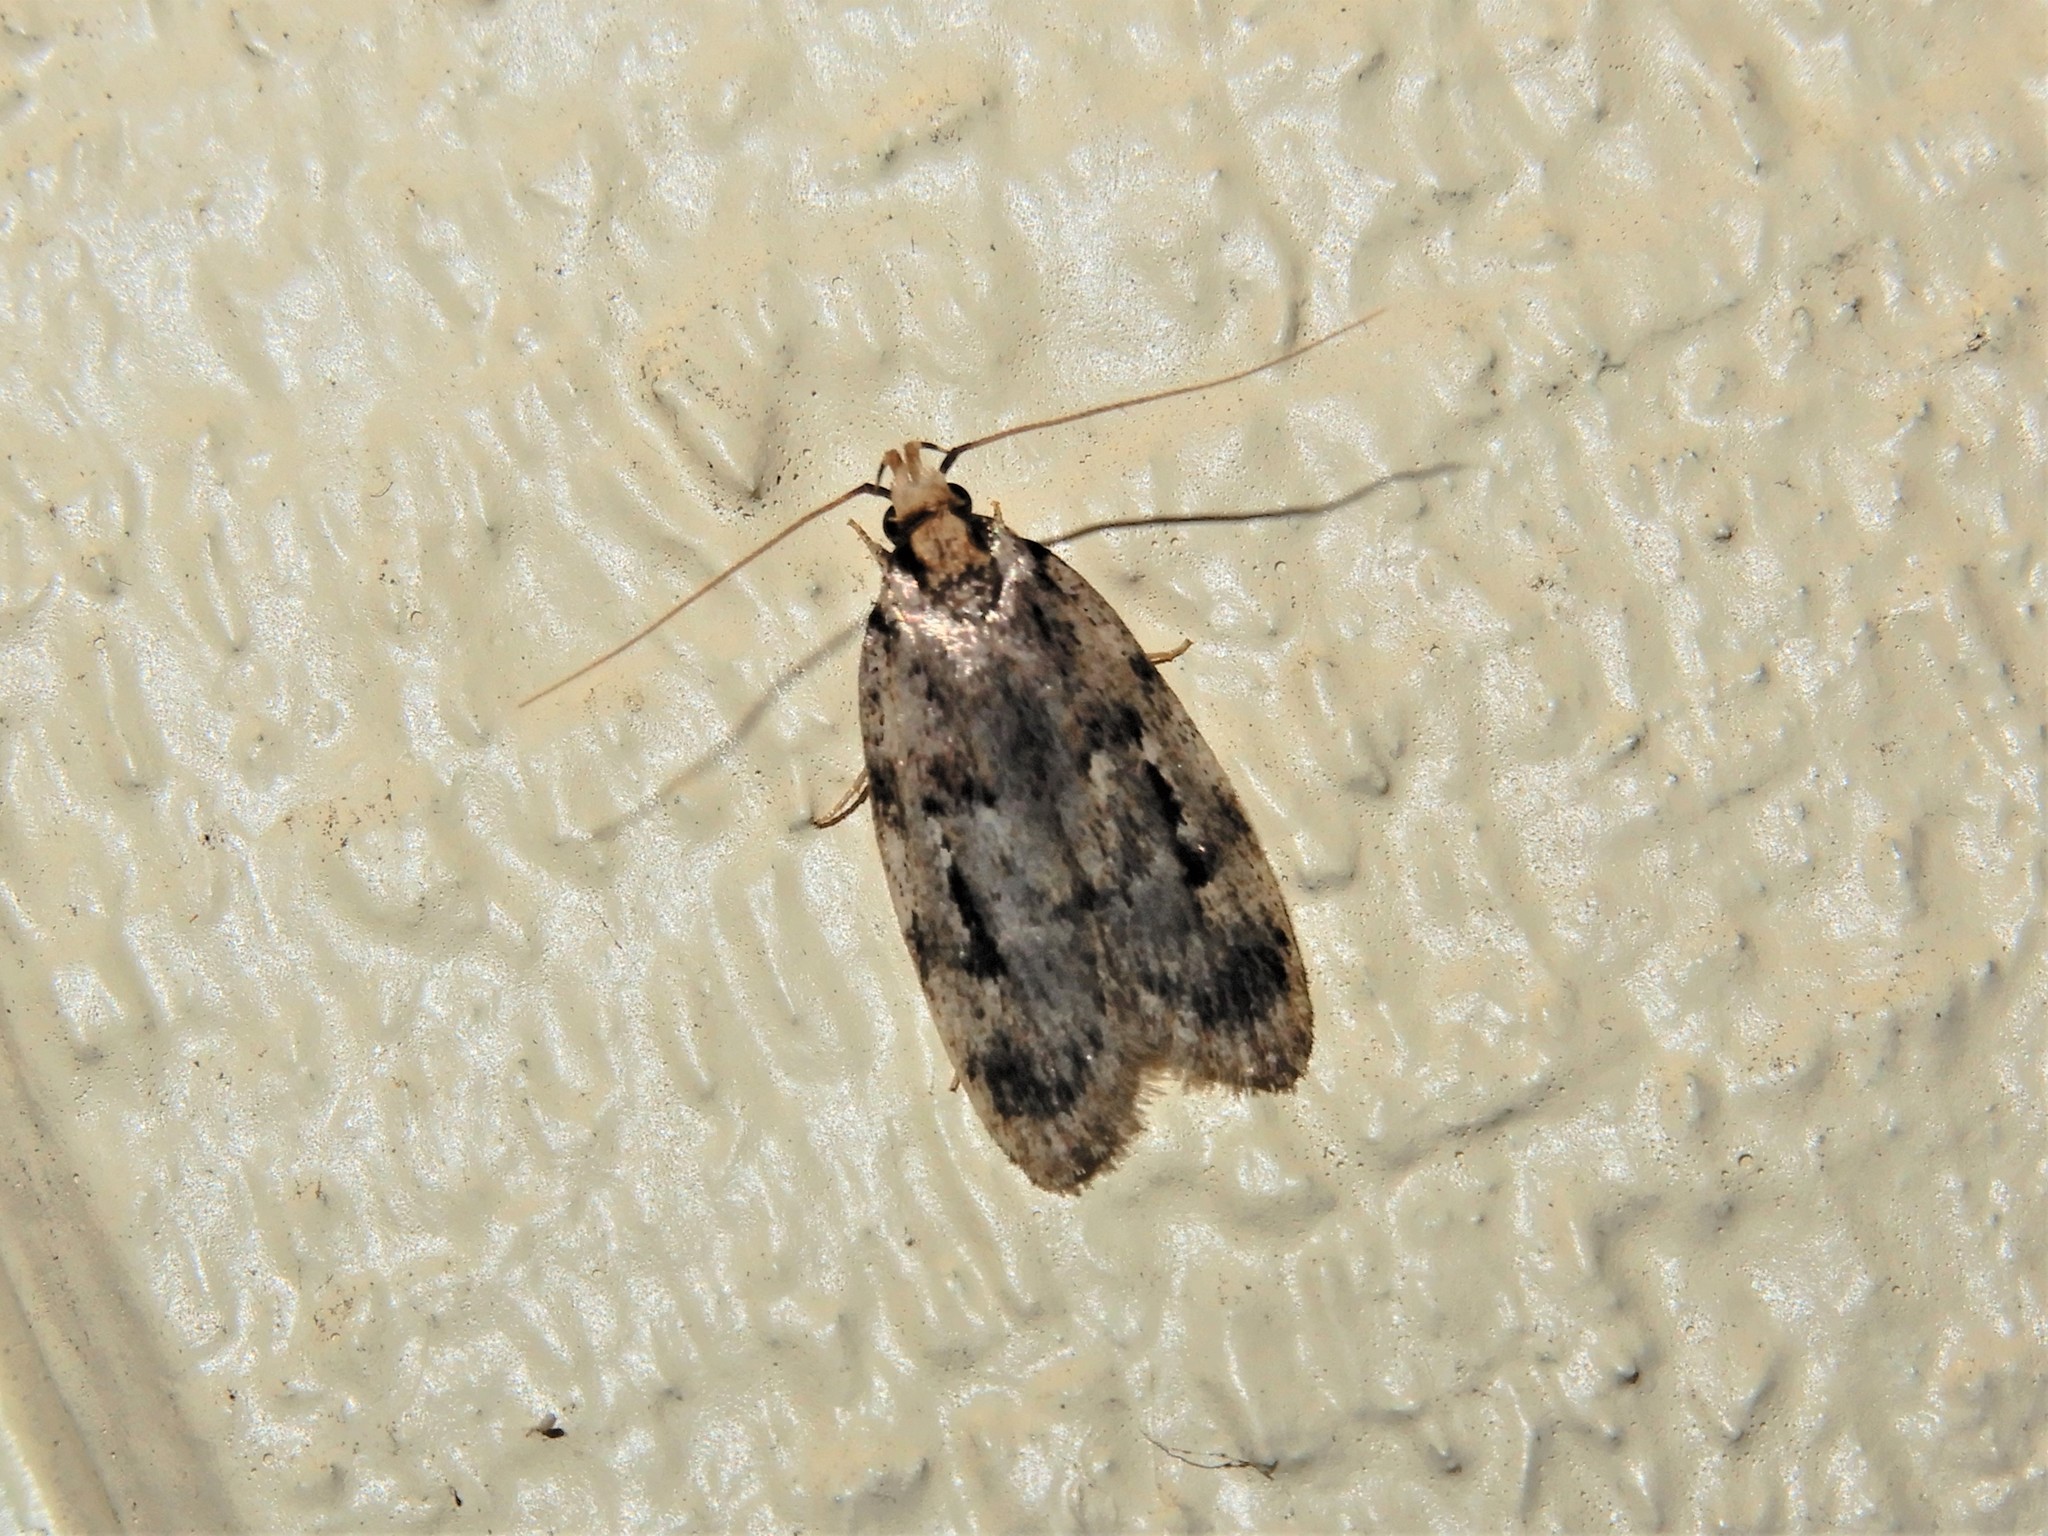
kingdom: Animalia
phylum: Arthropoda
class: Insecta
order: Lepidoptera
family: Oecophoridae
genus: Barea
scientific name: Barea exarcha
